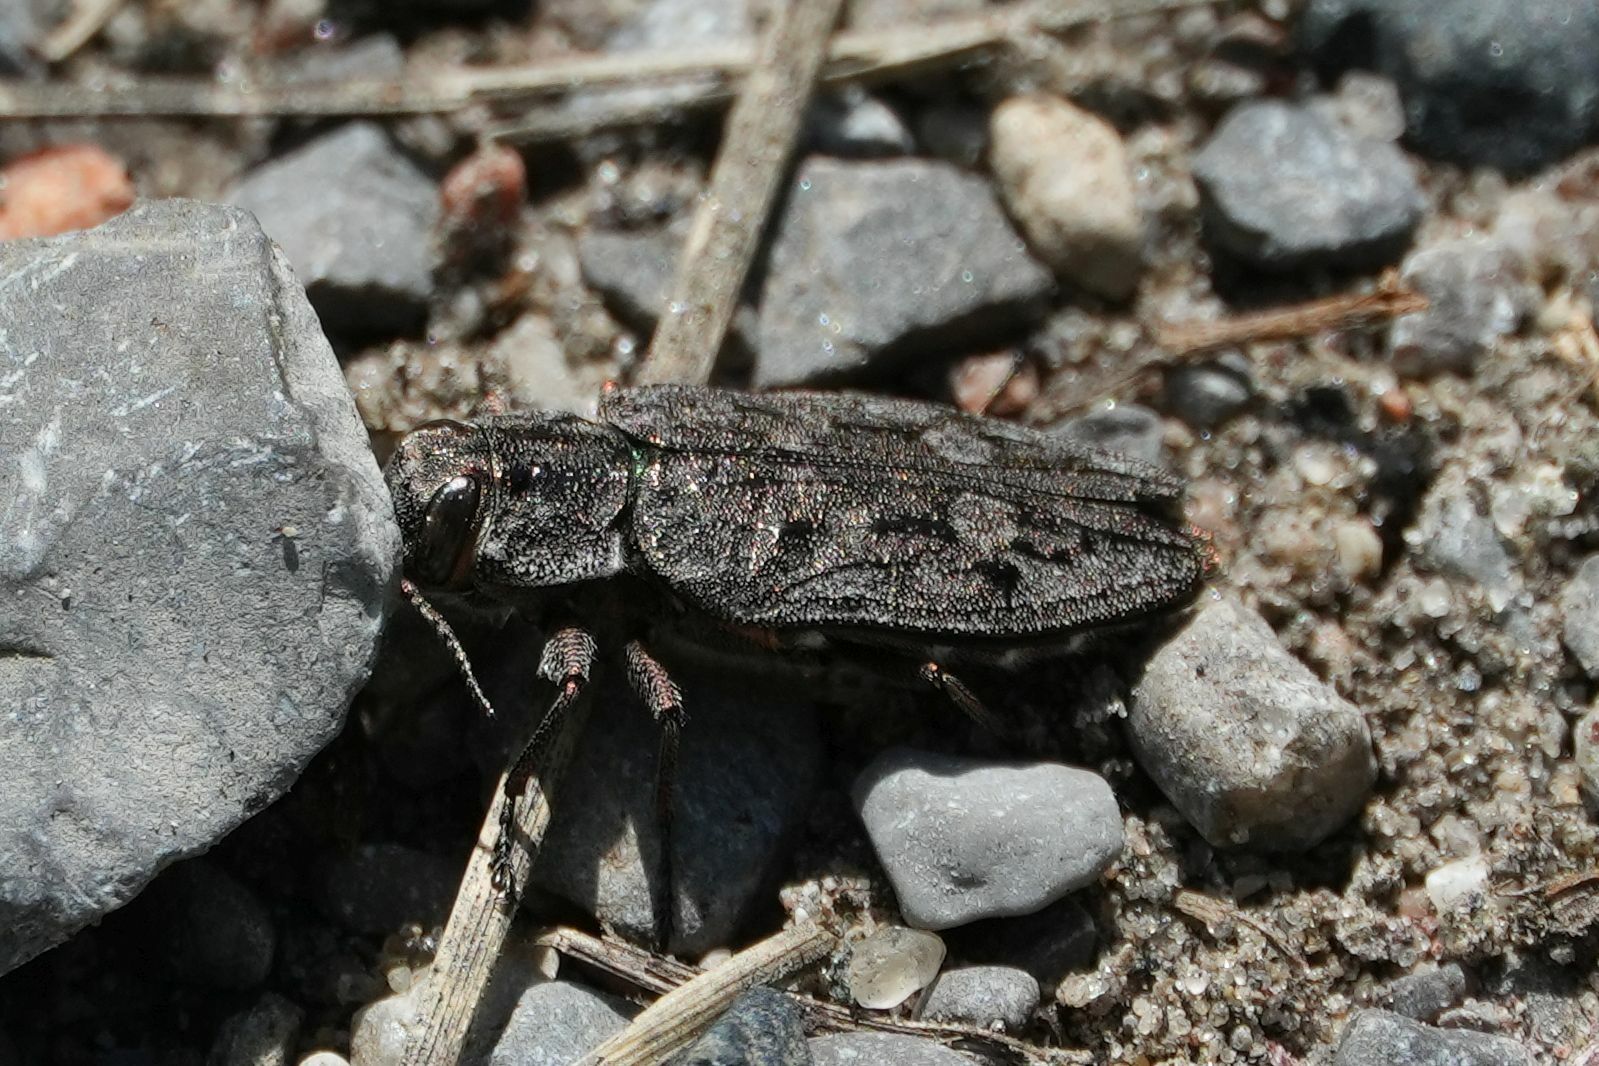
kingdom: Animalia
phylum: Arthropoda
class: Insecta
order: Coleoptera
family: Buprestidae
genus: Chrysobothris
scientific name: Chrysobothris dentipes
